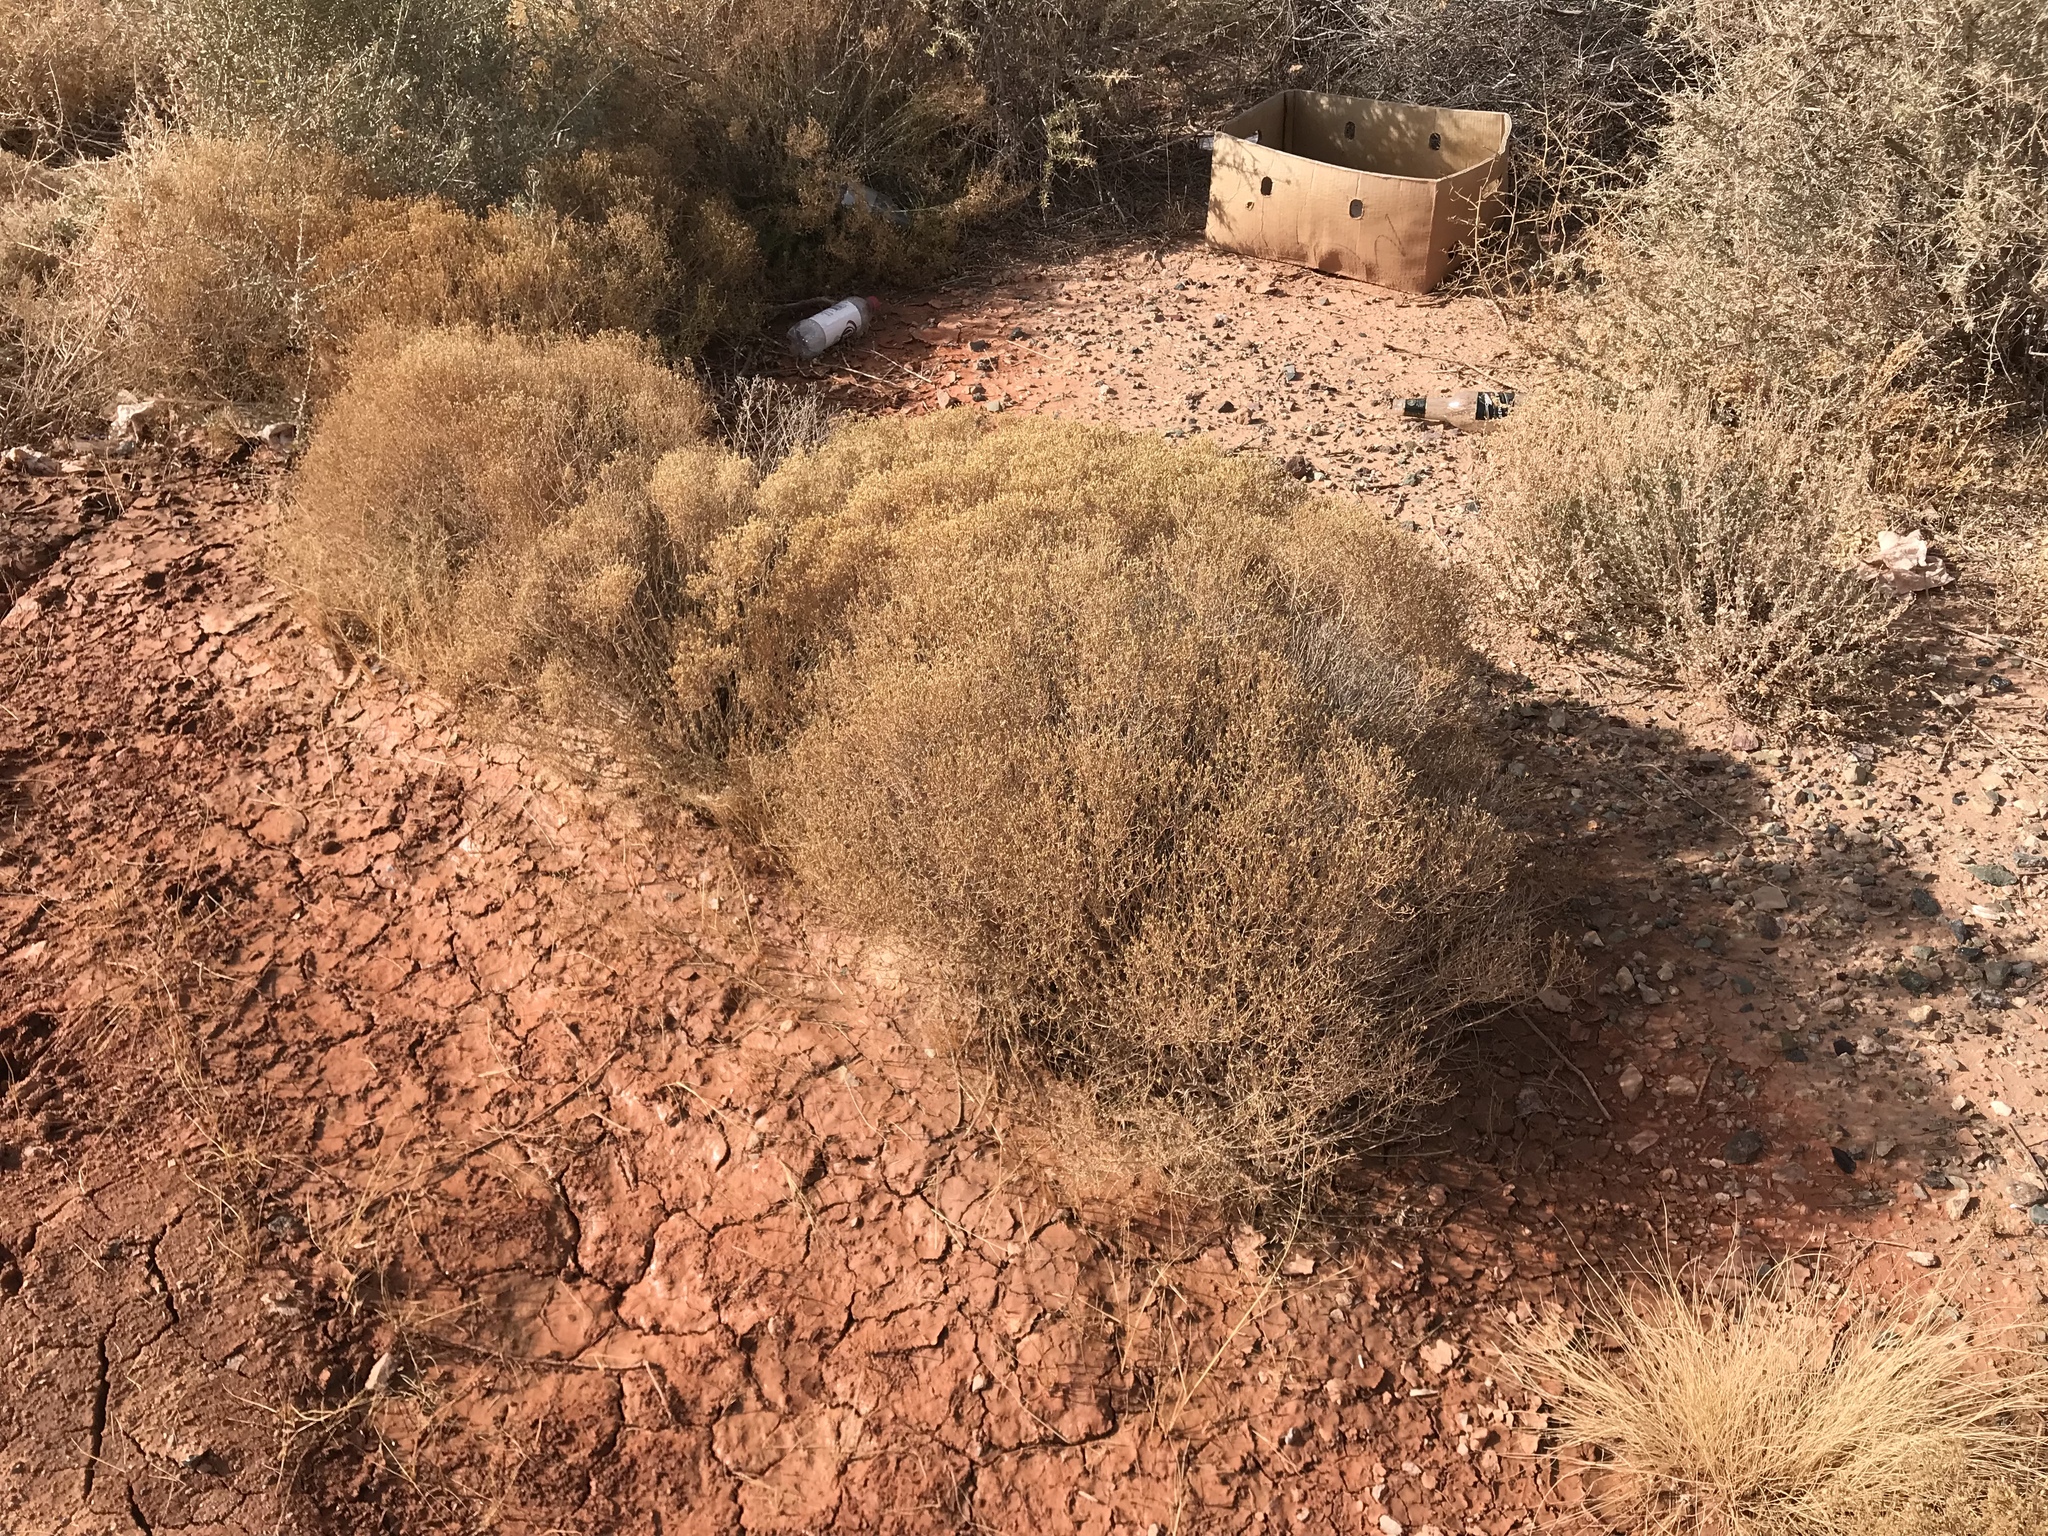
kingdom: Plantae
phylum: Tracheophyta
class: Magnoliopsida
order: Asterales
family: Asteraceae
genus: Gutierrezia
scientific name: Gutierrezia sarothrae
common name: Broom snakeweed
